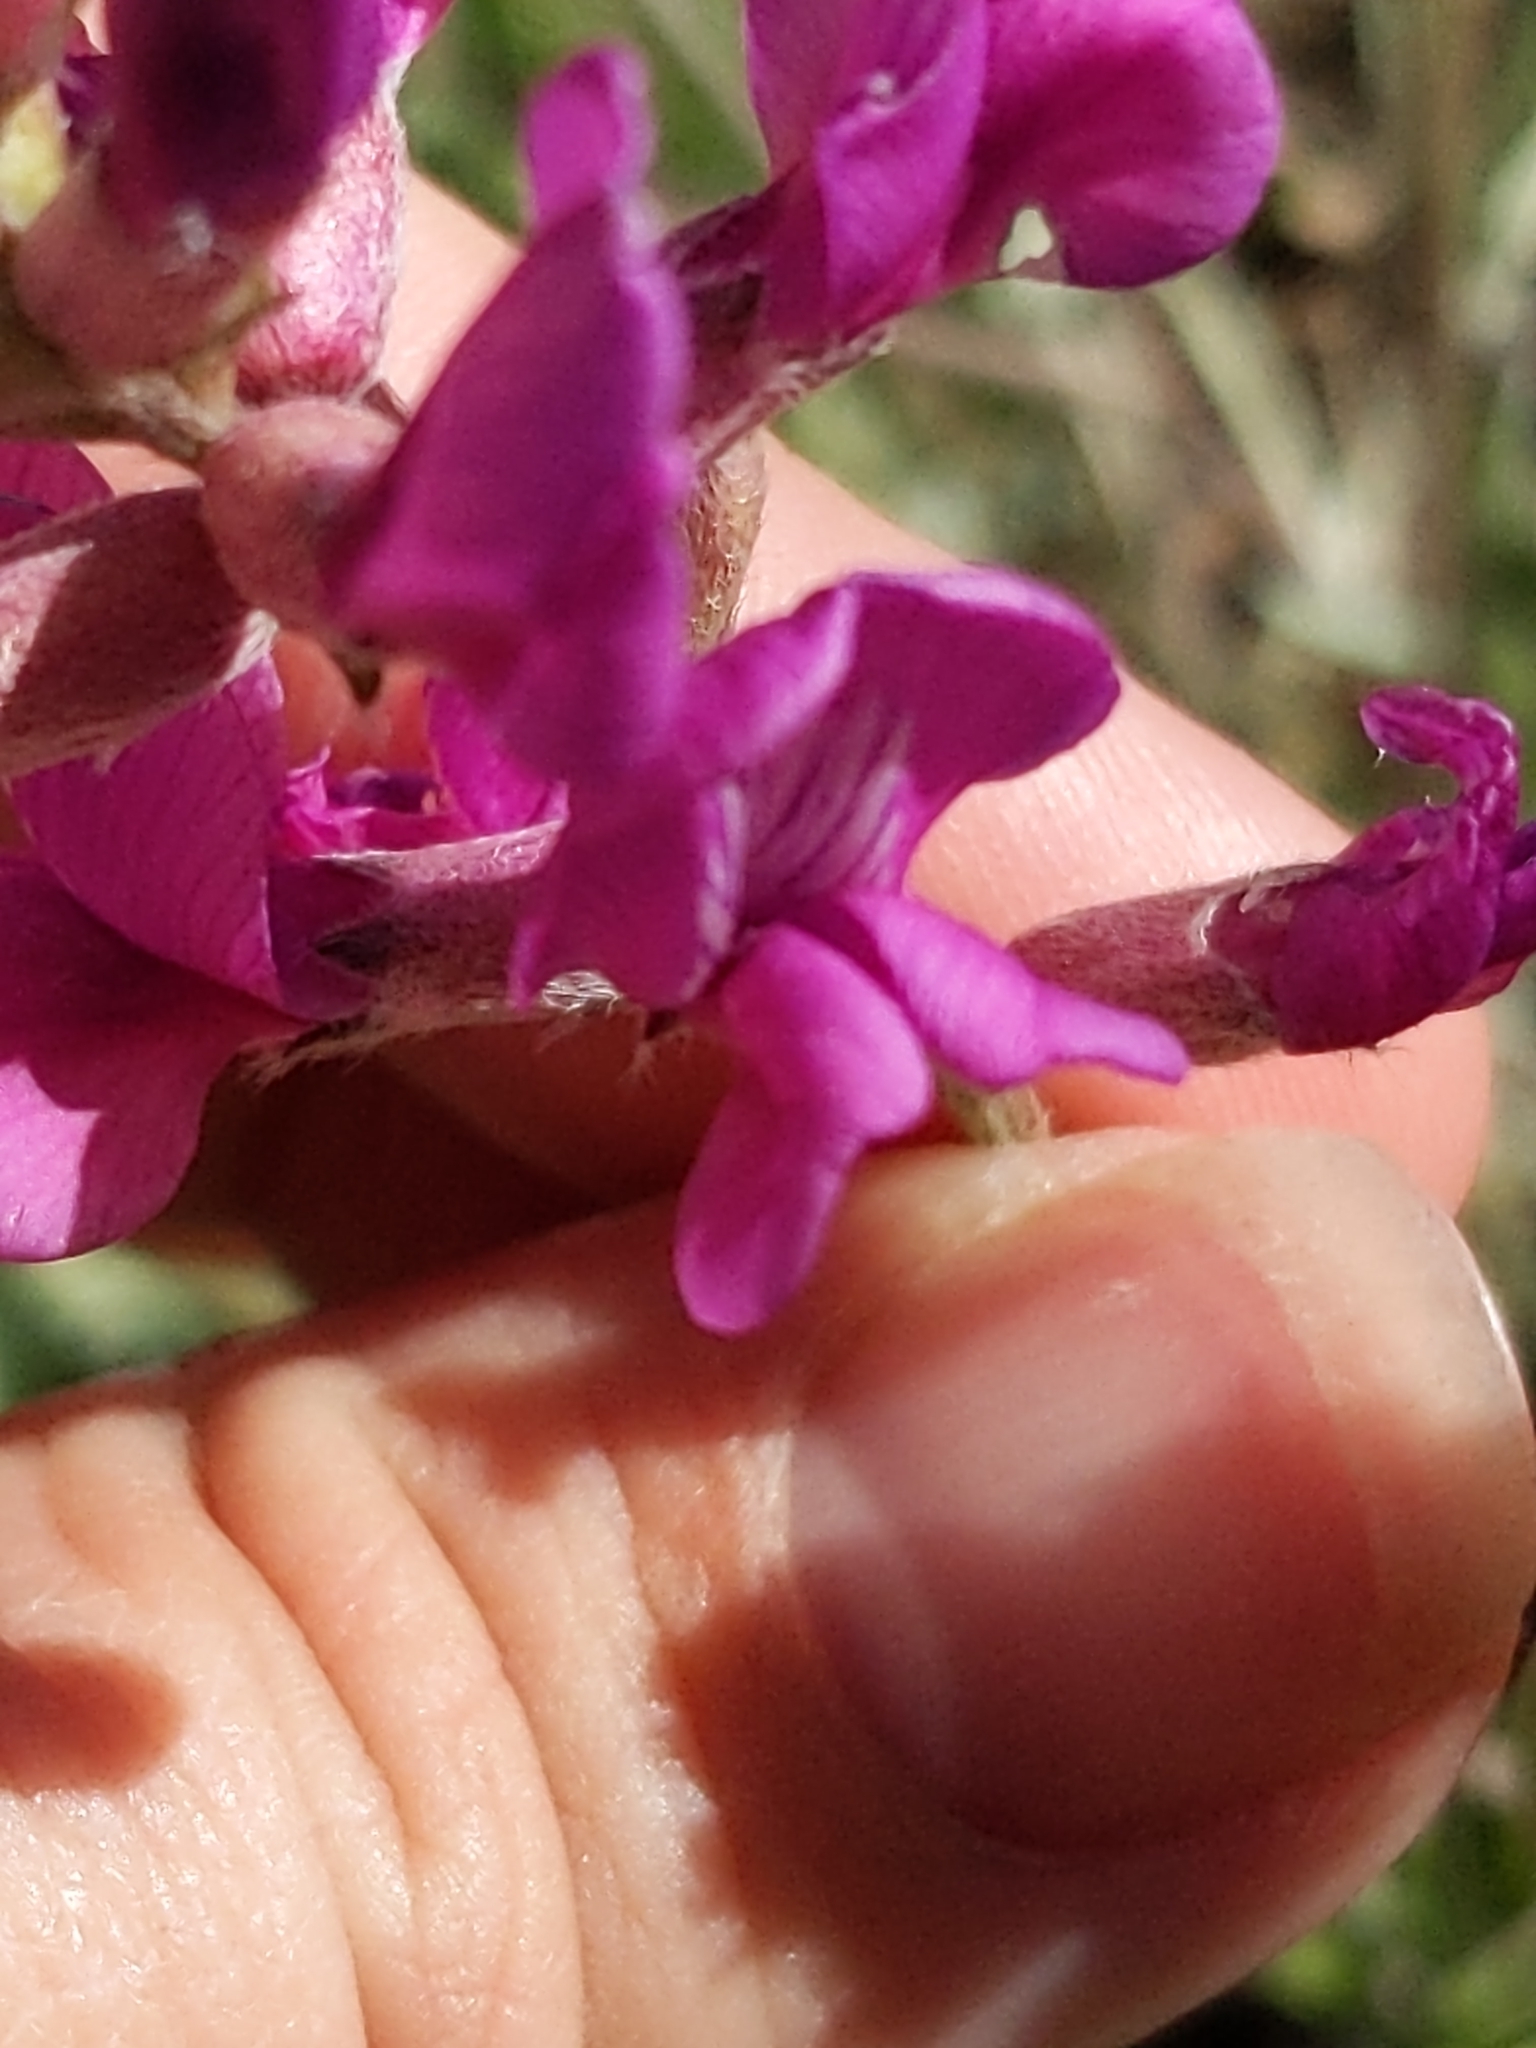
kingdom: Plantae
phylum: Tracheophyta
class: Magnoliopsida
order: Fabales
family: Fabaceae
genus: Oxytropis
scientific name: Oxytropis lambertii
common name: Purple locoweed
